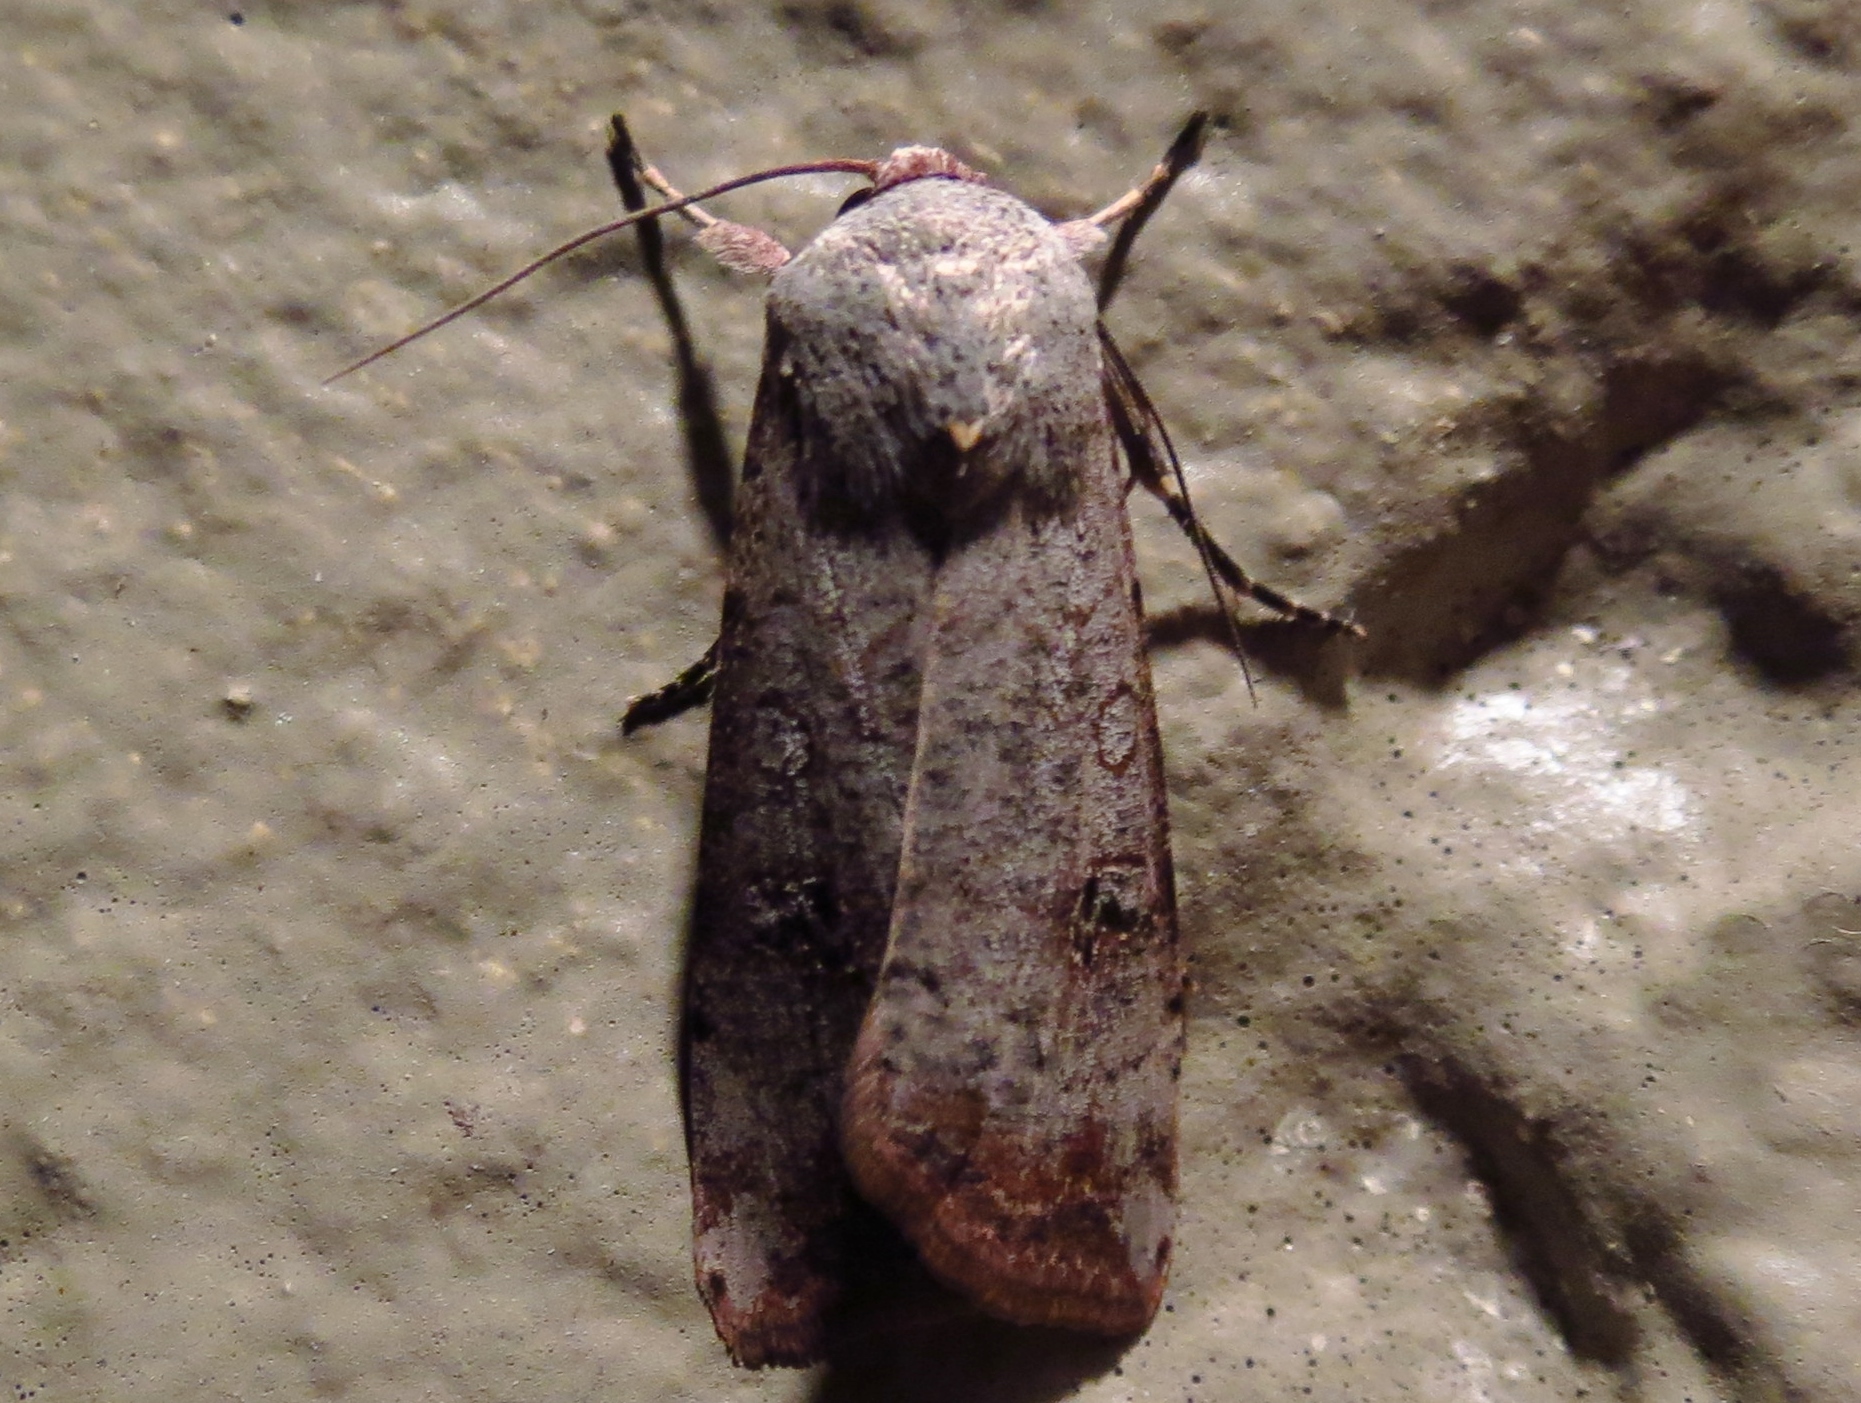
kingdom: Animalia
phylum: Arthropoda
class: Insecta
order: Lepidoptera
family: Noctuidae
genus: Anicla
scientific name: Anicla infecta
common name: Green cutworm
